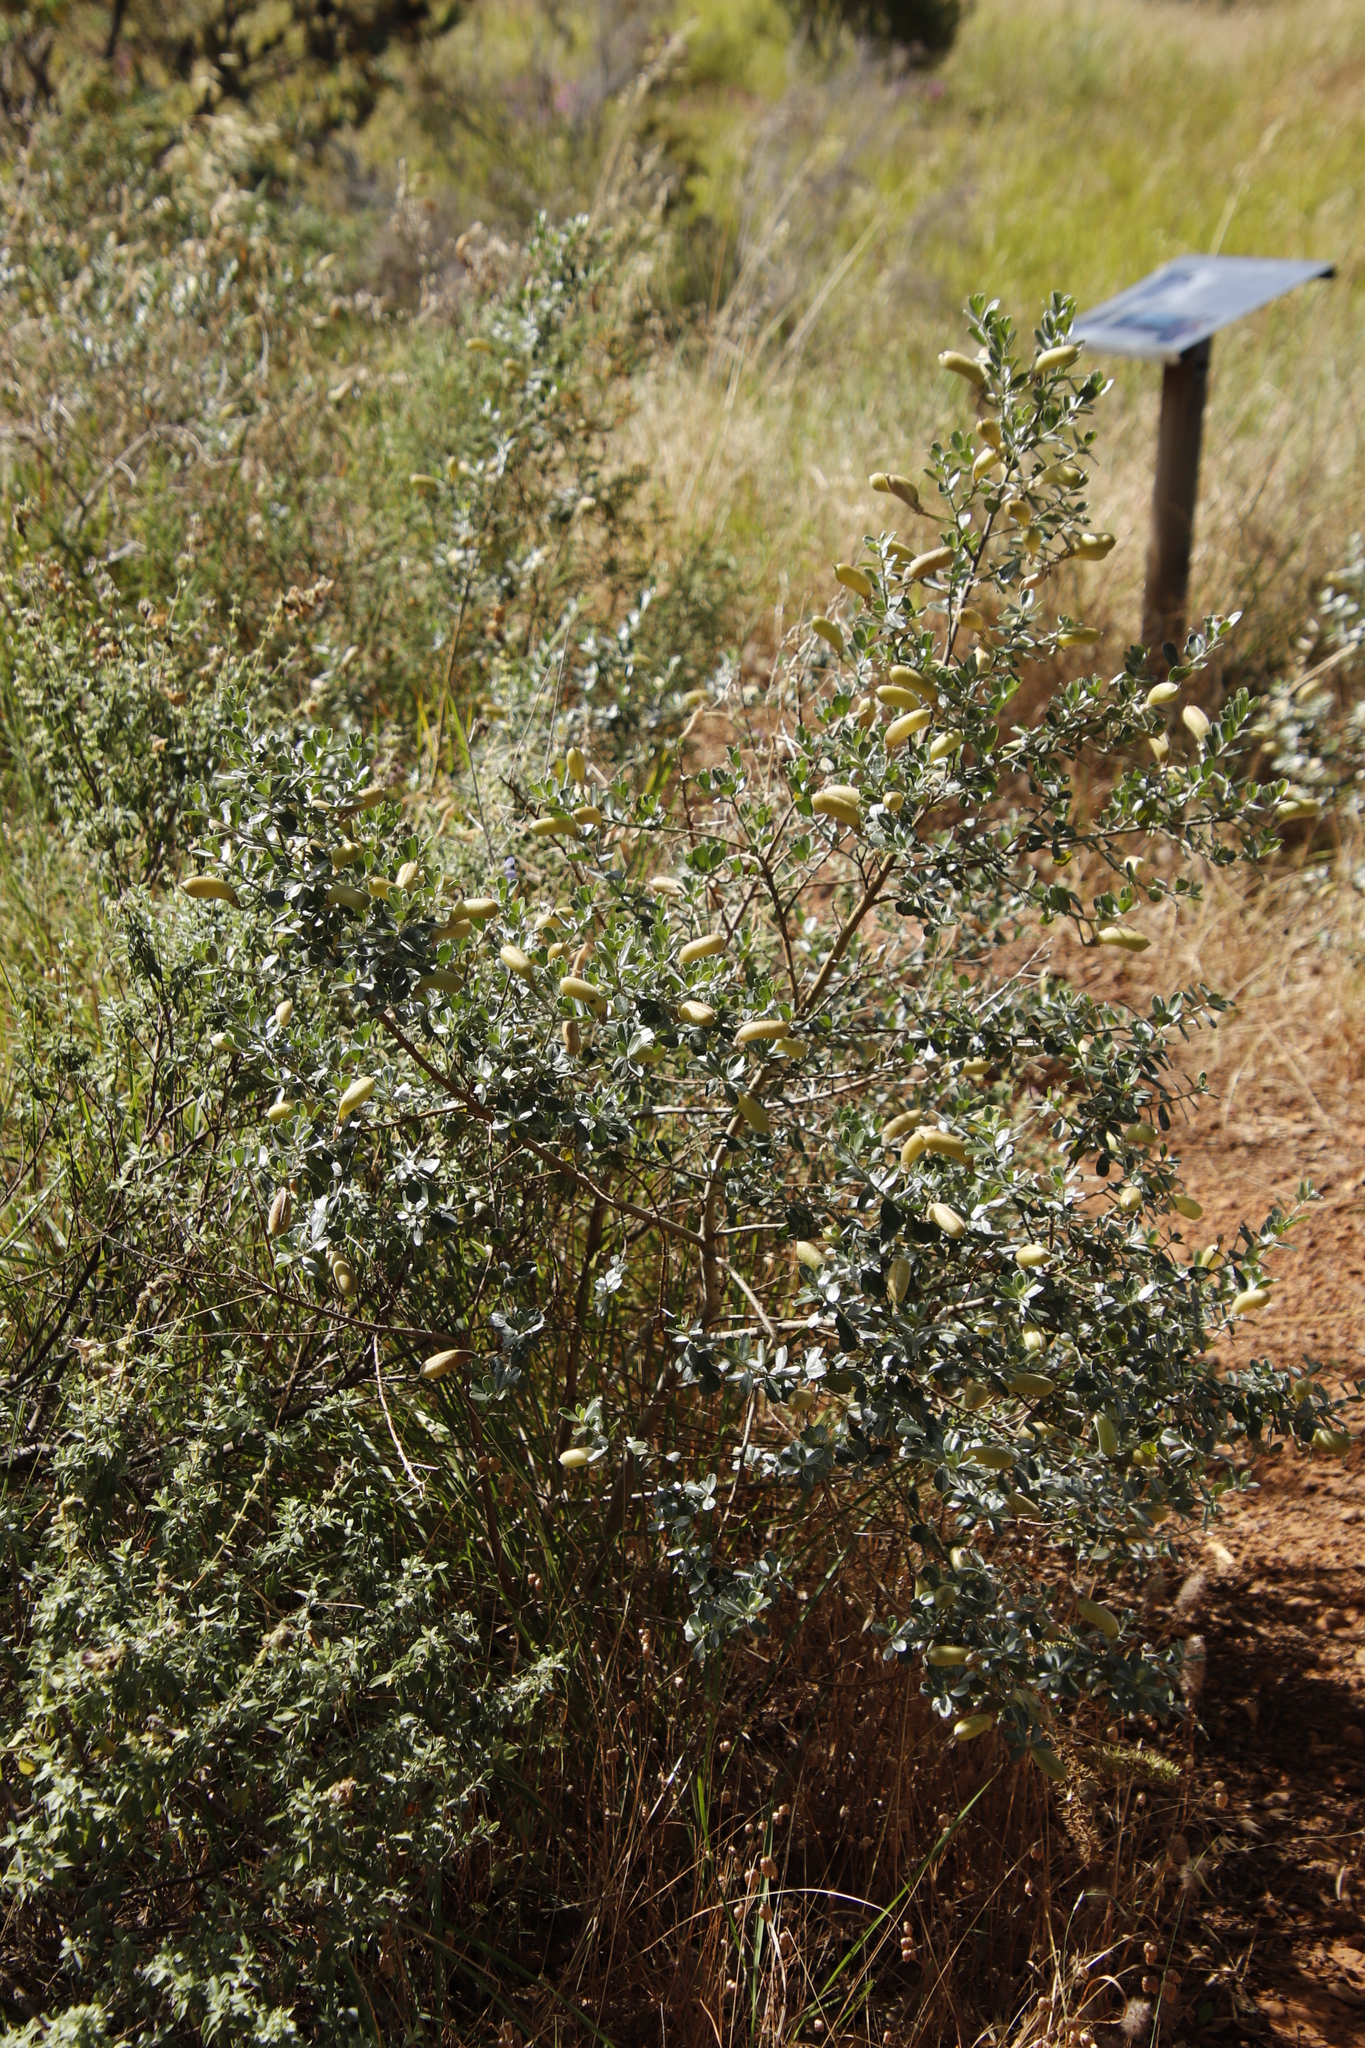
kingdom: Plantae
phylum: Tracheophyta
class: Magnoliopsida
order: Fabales
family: Fabaceae
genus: Podalyria
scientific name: Podalyria myrtillifolia
